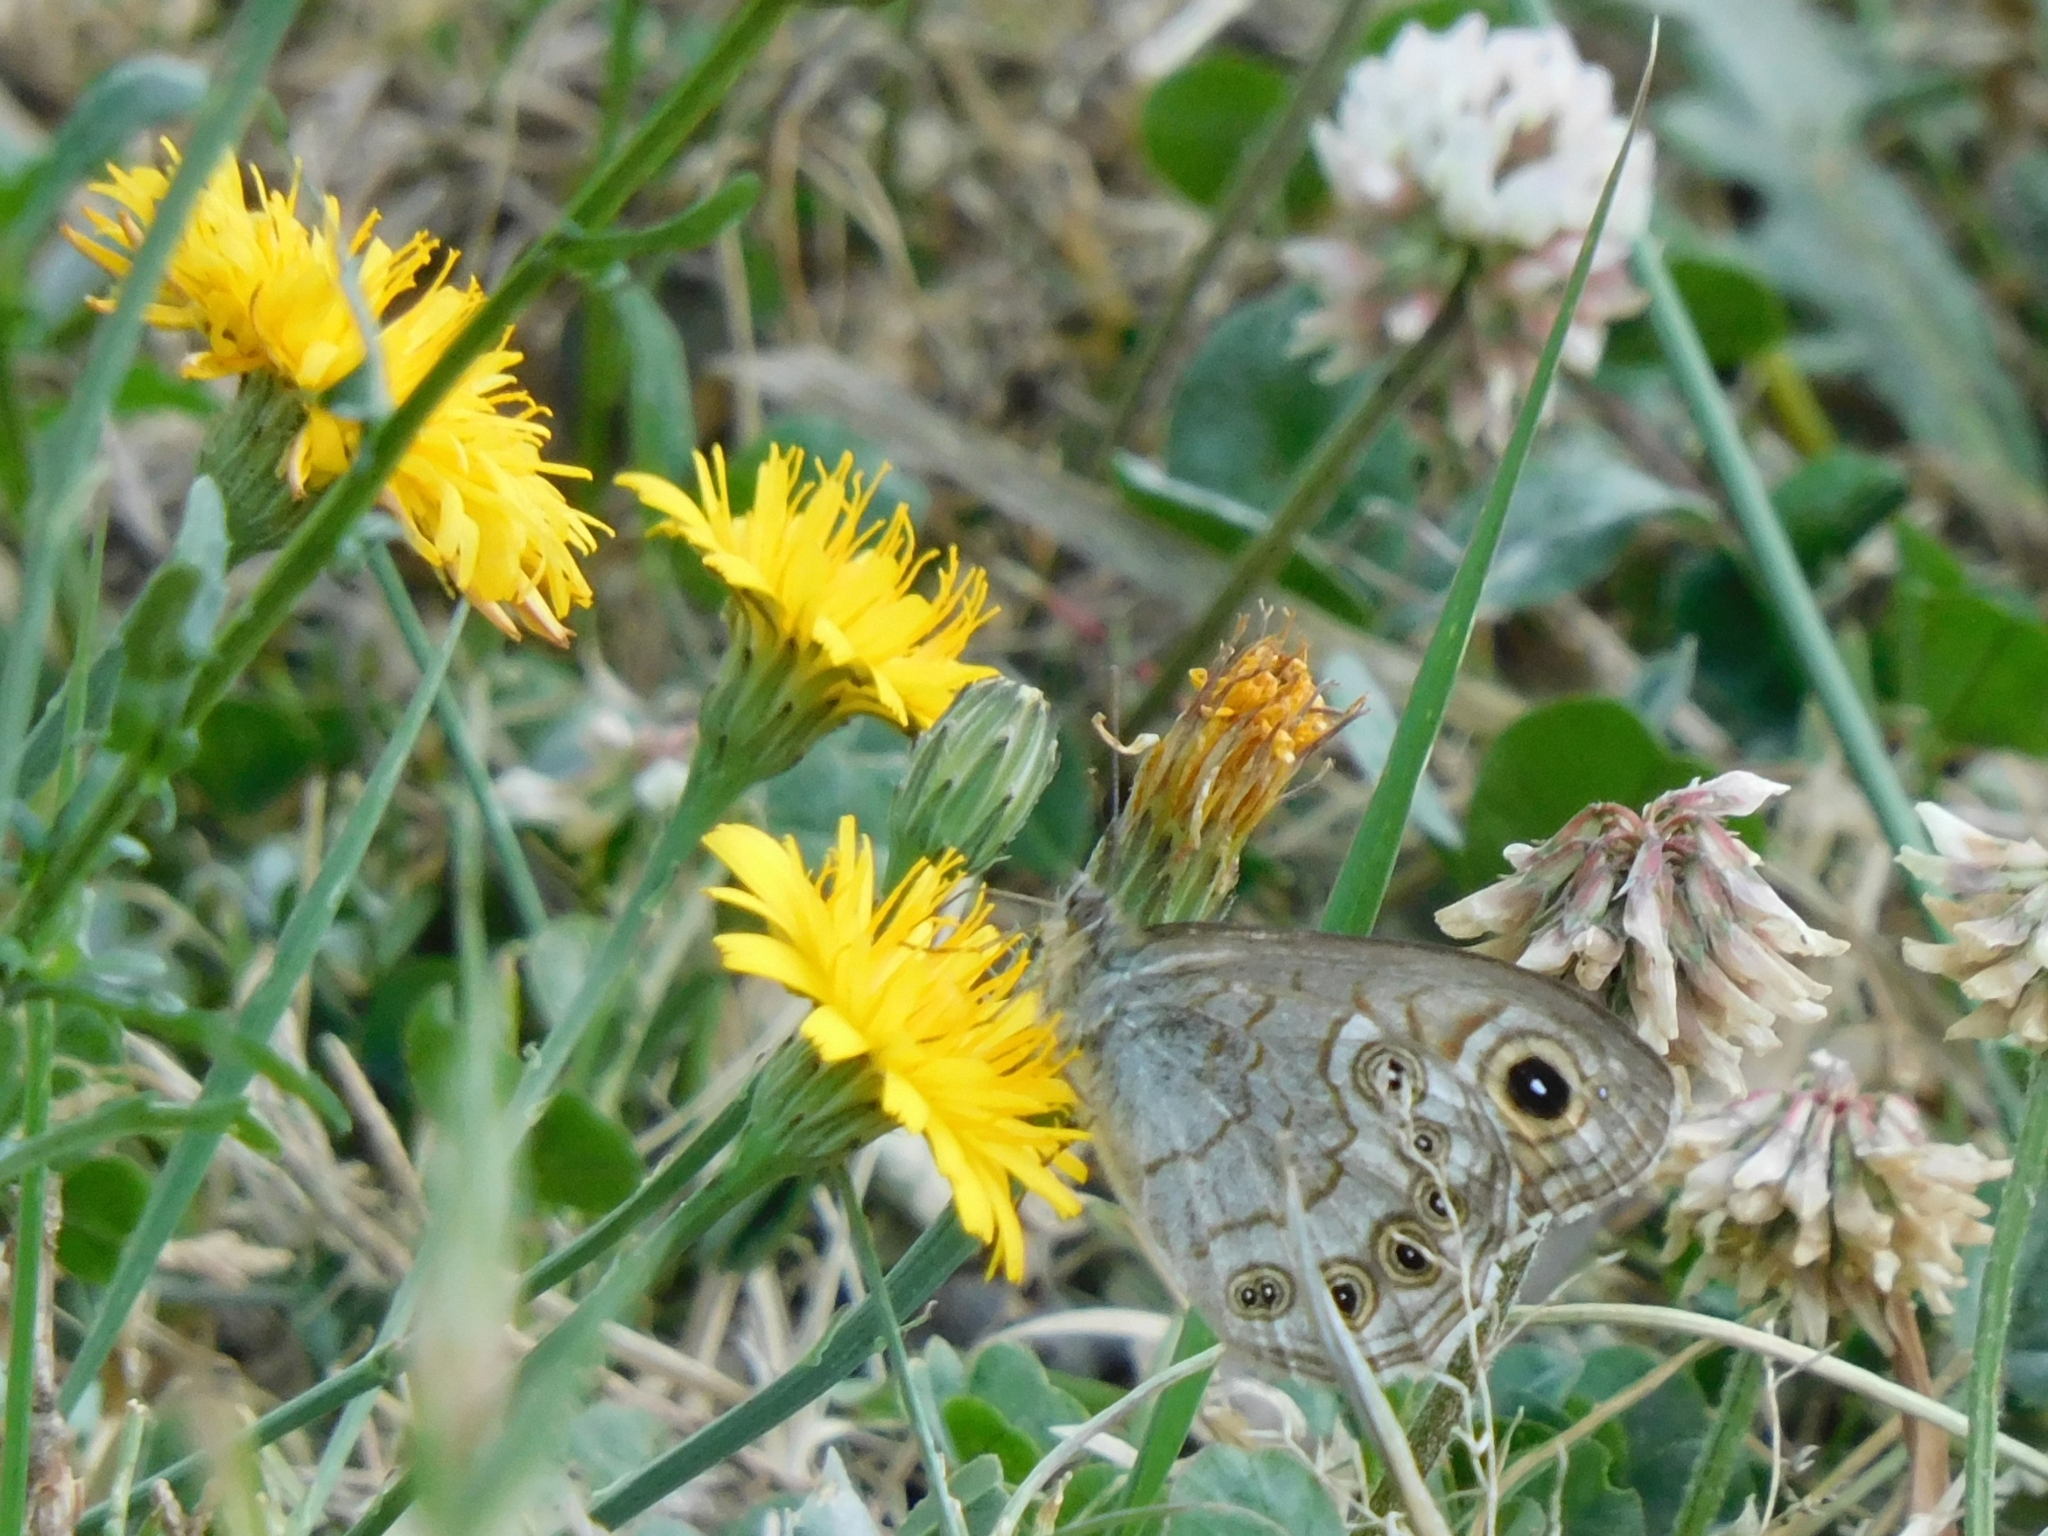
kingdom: Animalia
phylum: Arthropoda
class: Insecta
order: Lepidoptera
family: Nymphalidae
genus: Pararge
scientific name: Pararge Lasiommata schakra
